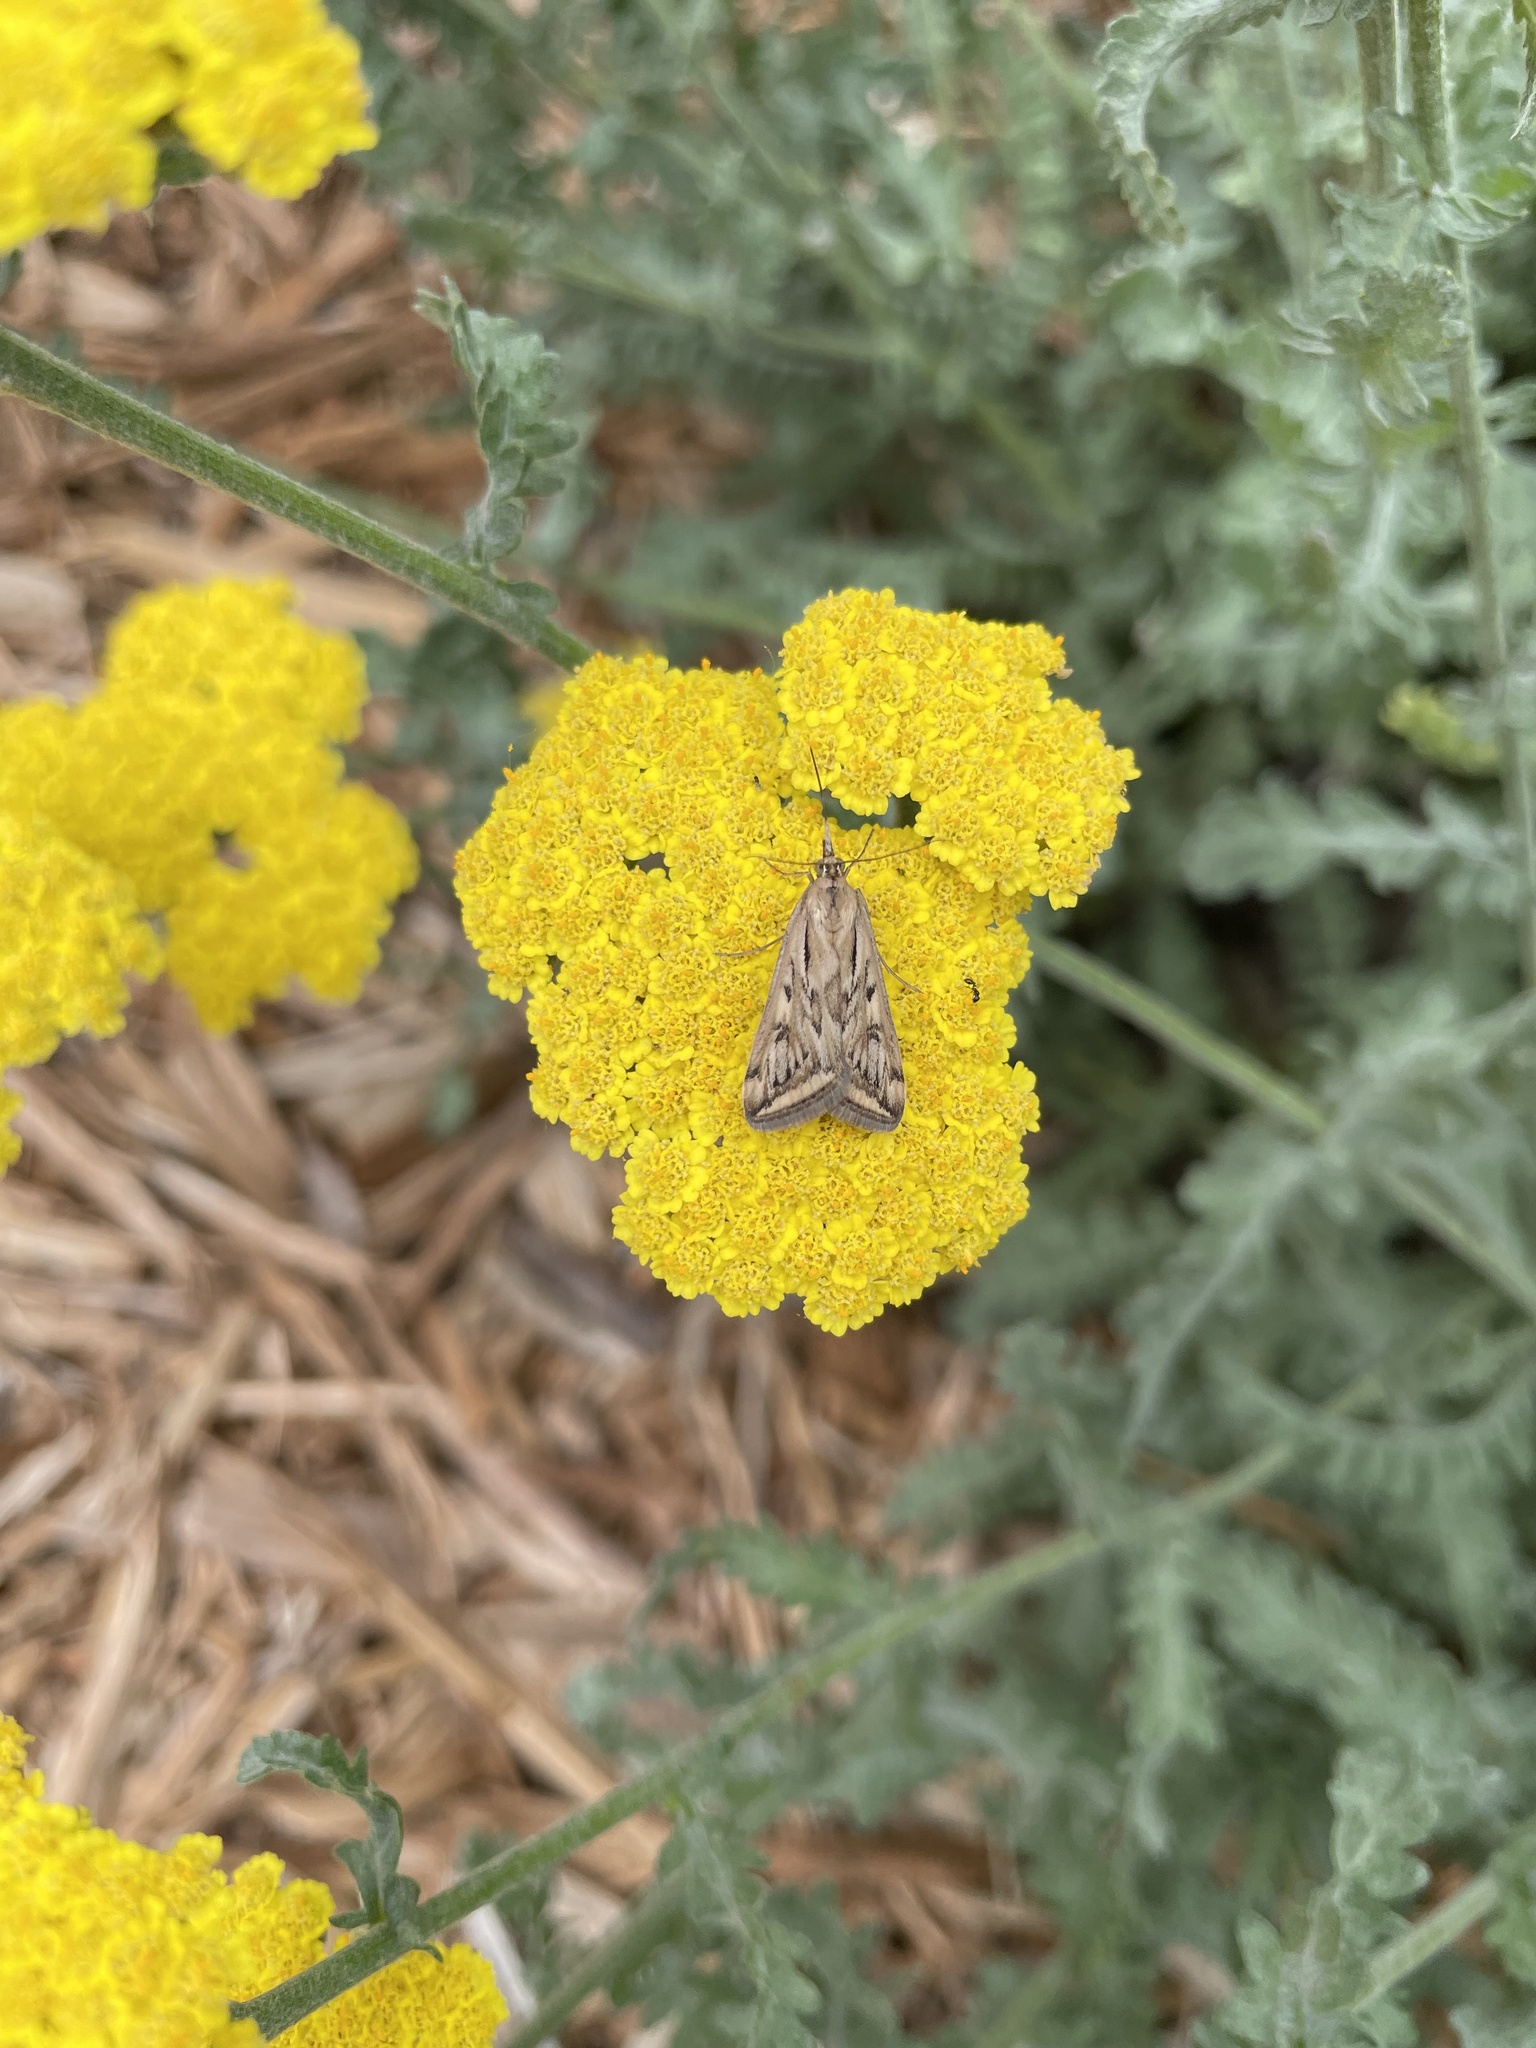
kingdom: Animalia
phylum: Arthropoda
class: Insecta
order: Lepidoptera
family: Crambidae
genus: Loxostege
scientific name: Loxostege cereralis
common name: Alfalfa webworm moth
